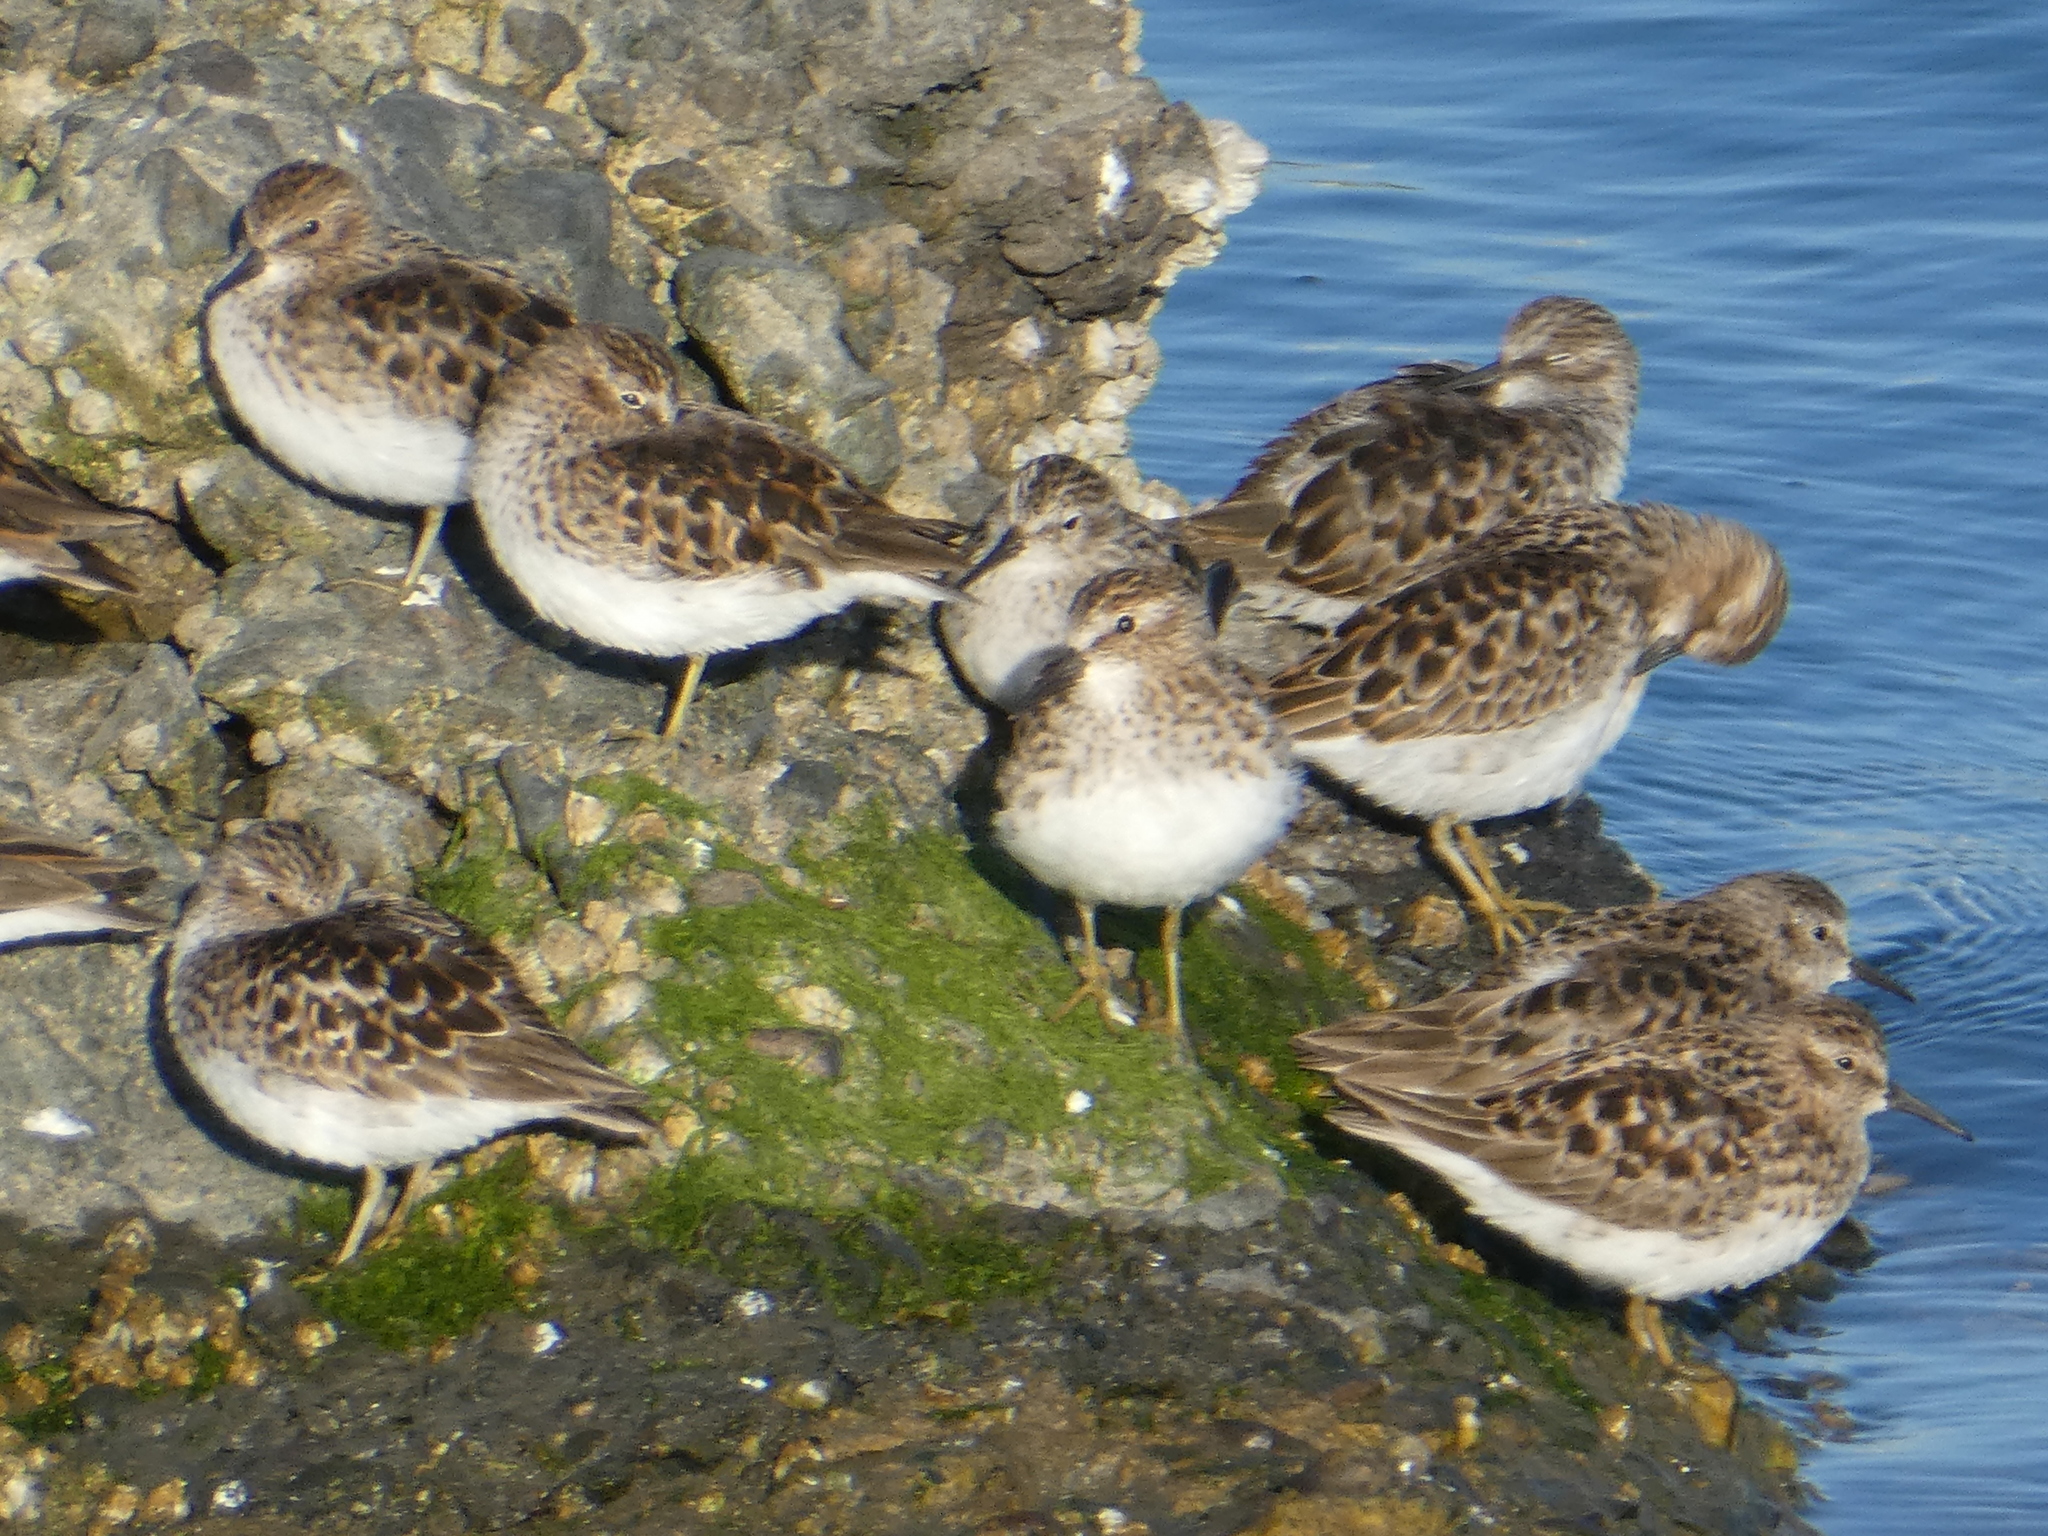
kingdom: Animalia
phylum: Chordata
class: Aves
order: Charadriiformes
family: Scolopacidae
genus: Calidris
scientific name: Calidris minutilla
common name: Least sandpiper
